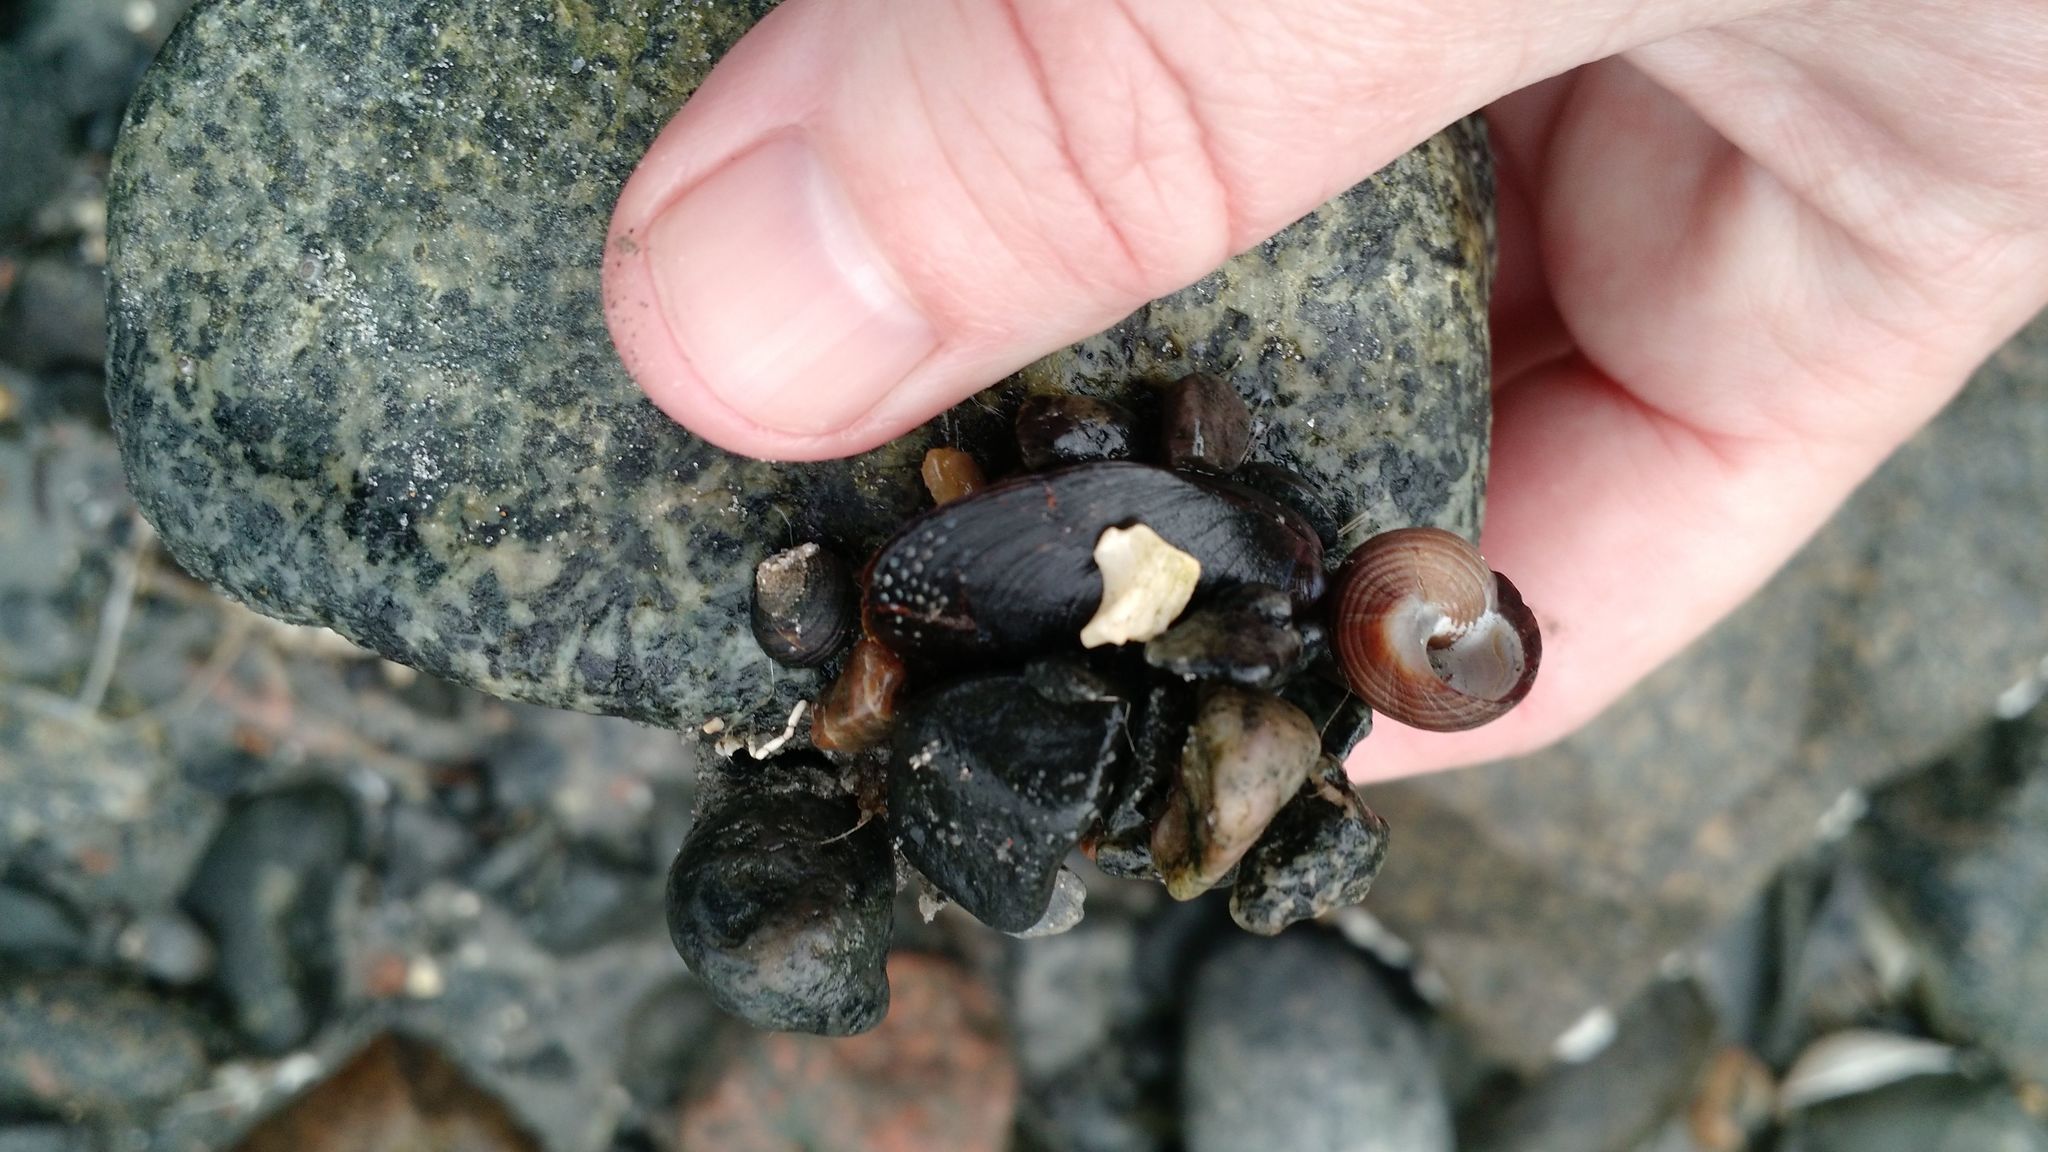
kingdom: Animalia
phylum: Mollusca
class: Bivalvia
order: Mytilida
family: Mytilidae
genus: Mytilus
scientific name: Mytilus edulis
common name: Blue mussel
